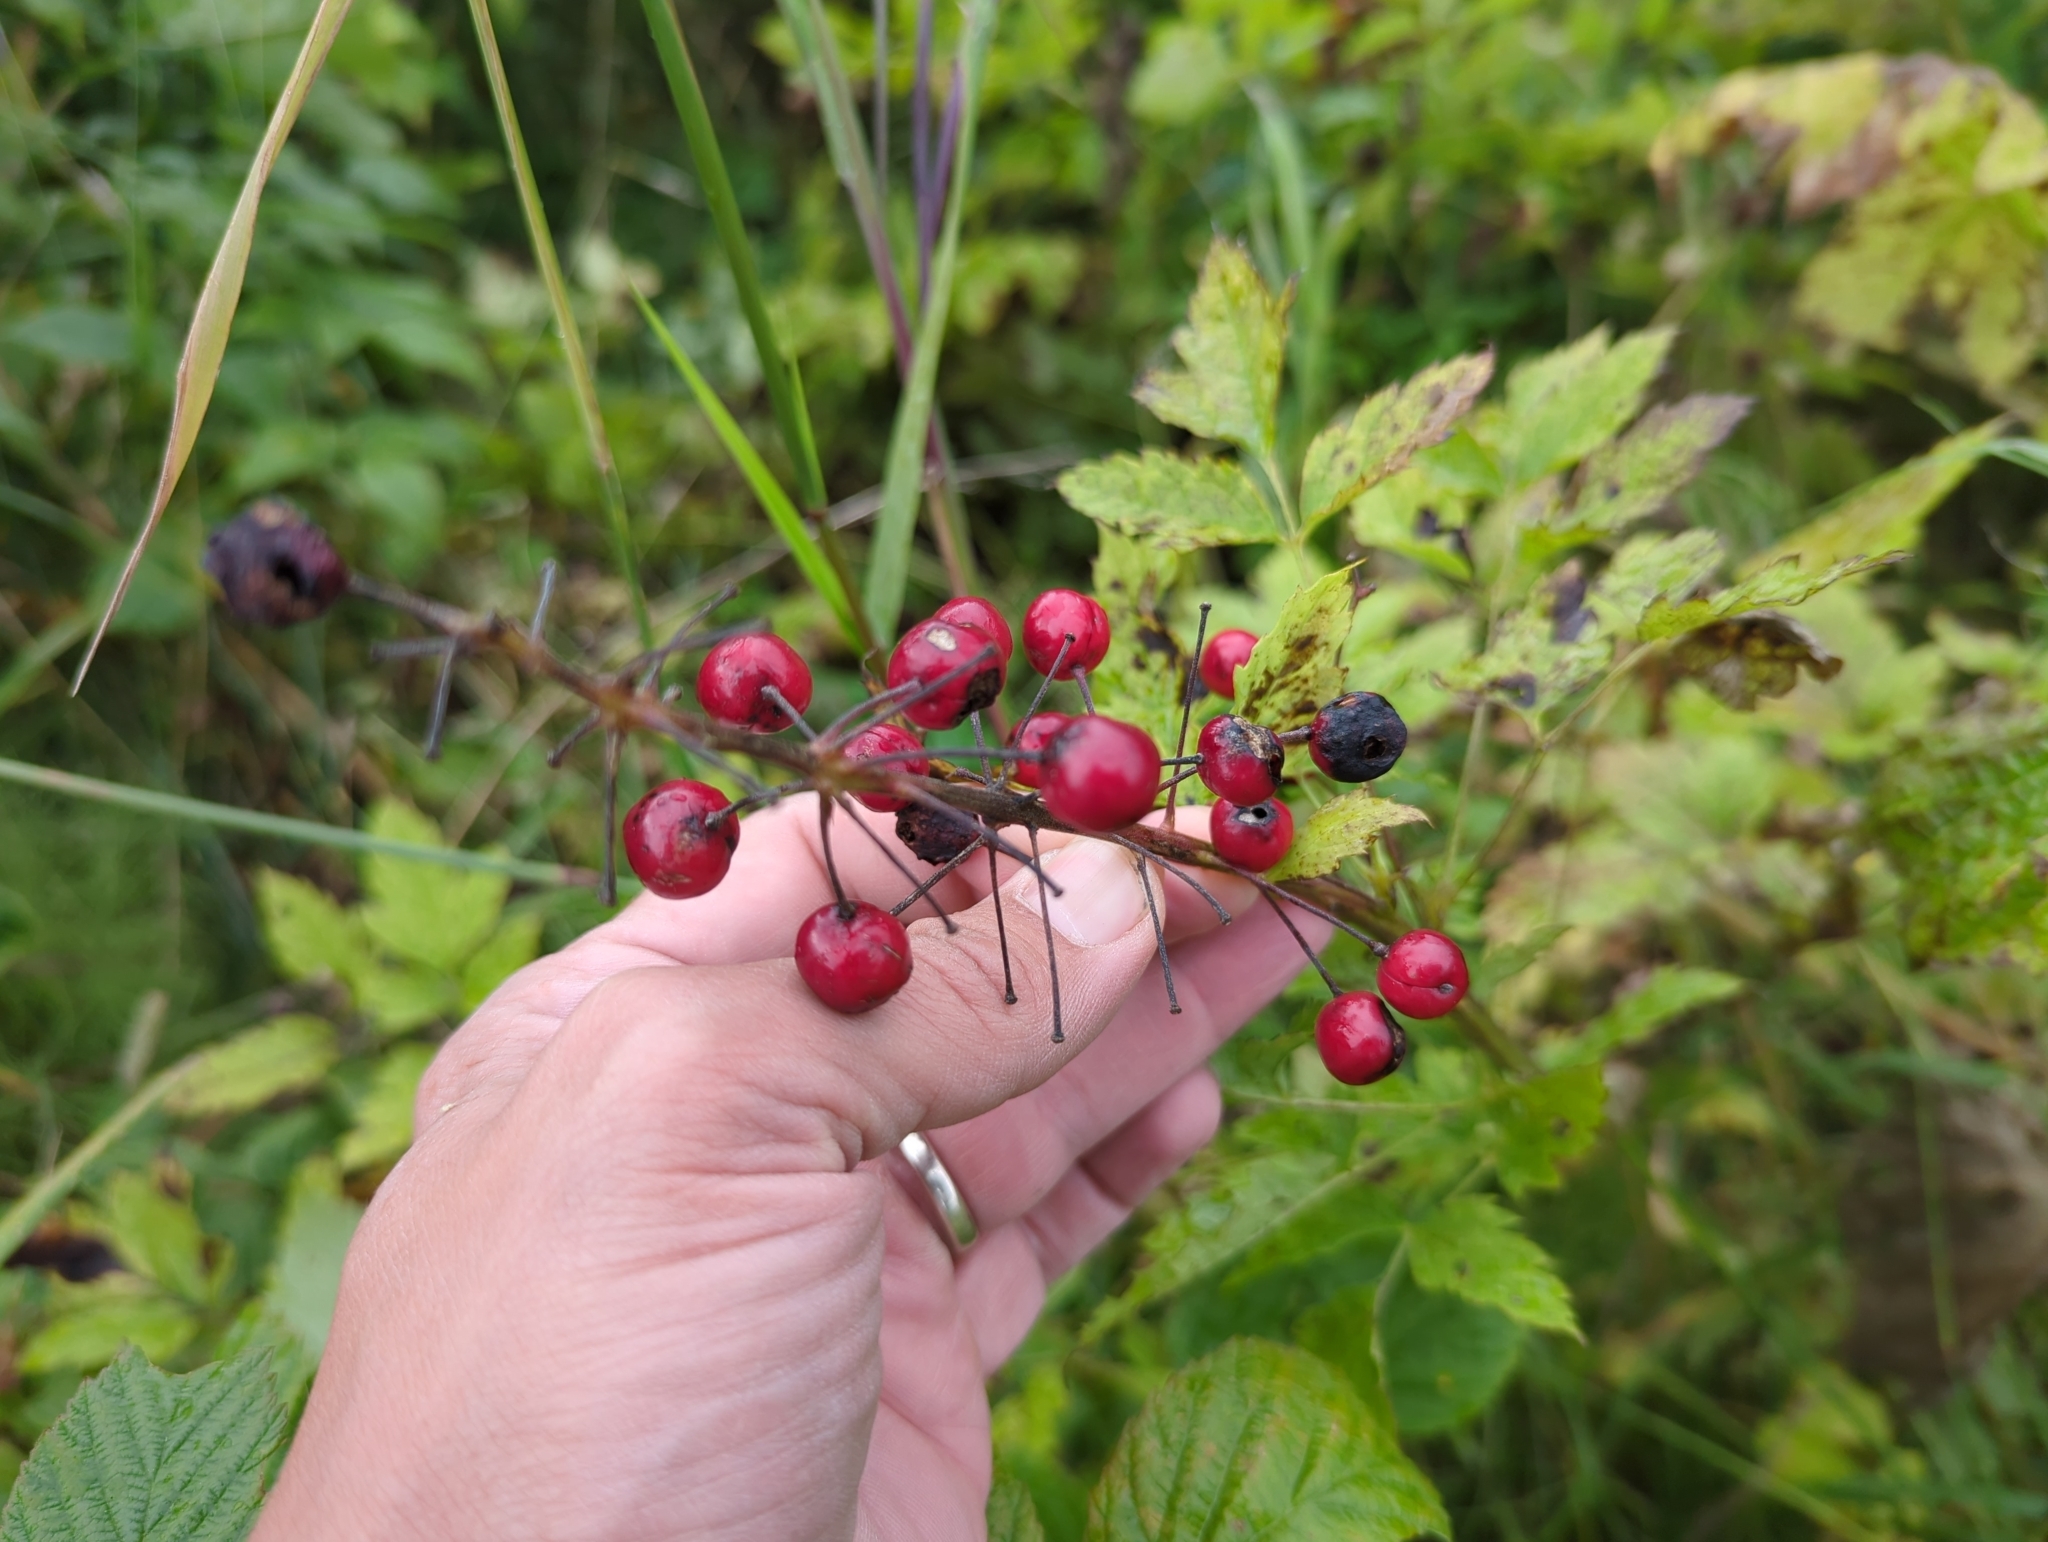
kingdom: Plantae
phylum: Tracheophyta
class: Magnoliopsida
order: Ranunculales
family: Ranunculaceae
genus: Actaea
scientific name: Actaea rubra
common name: Red baneberry
